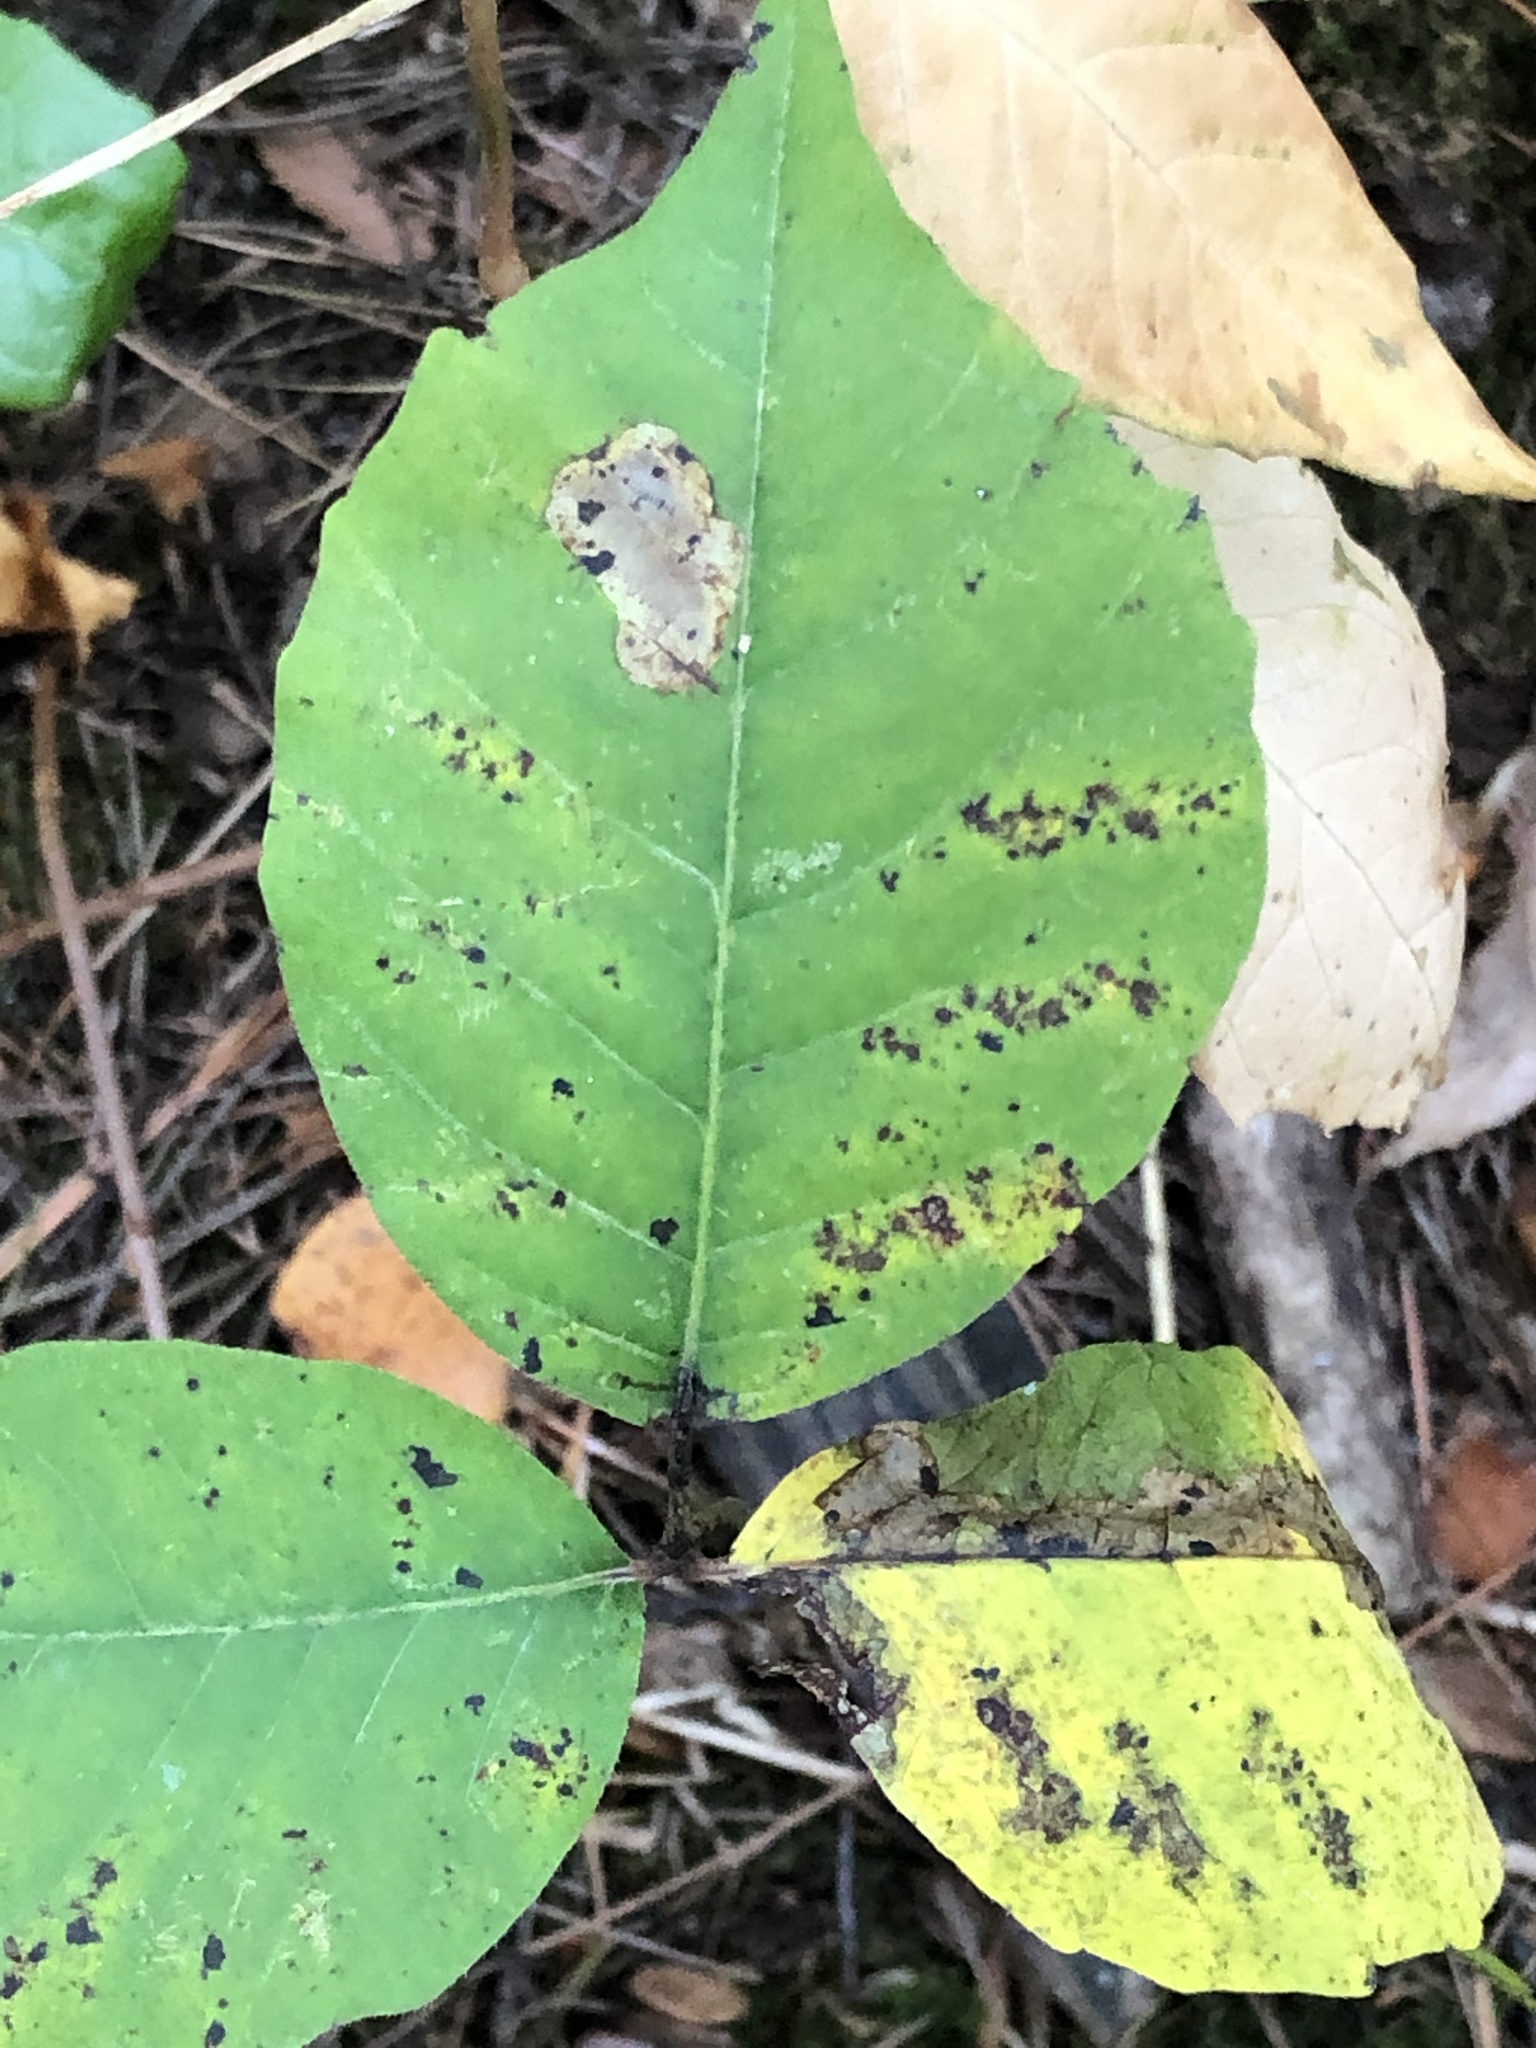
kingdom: Animalia
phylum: Arthropoda
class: Insecta
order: Lepidoptera
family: Gracillariidae
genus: Cameraria
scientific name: Cameraria guttifinitella
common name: Poison ivy leaf-miner moth
